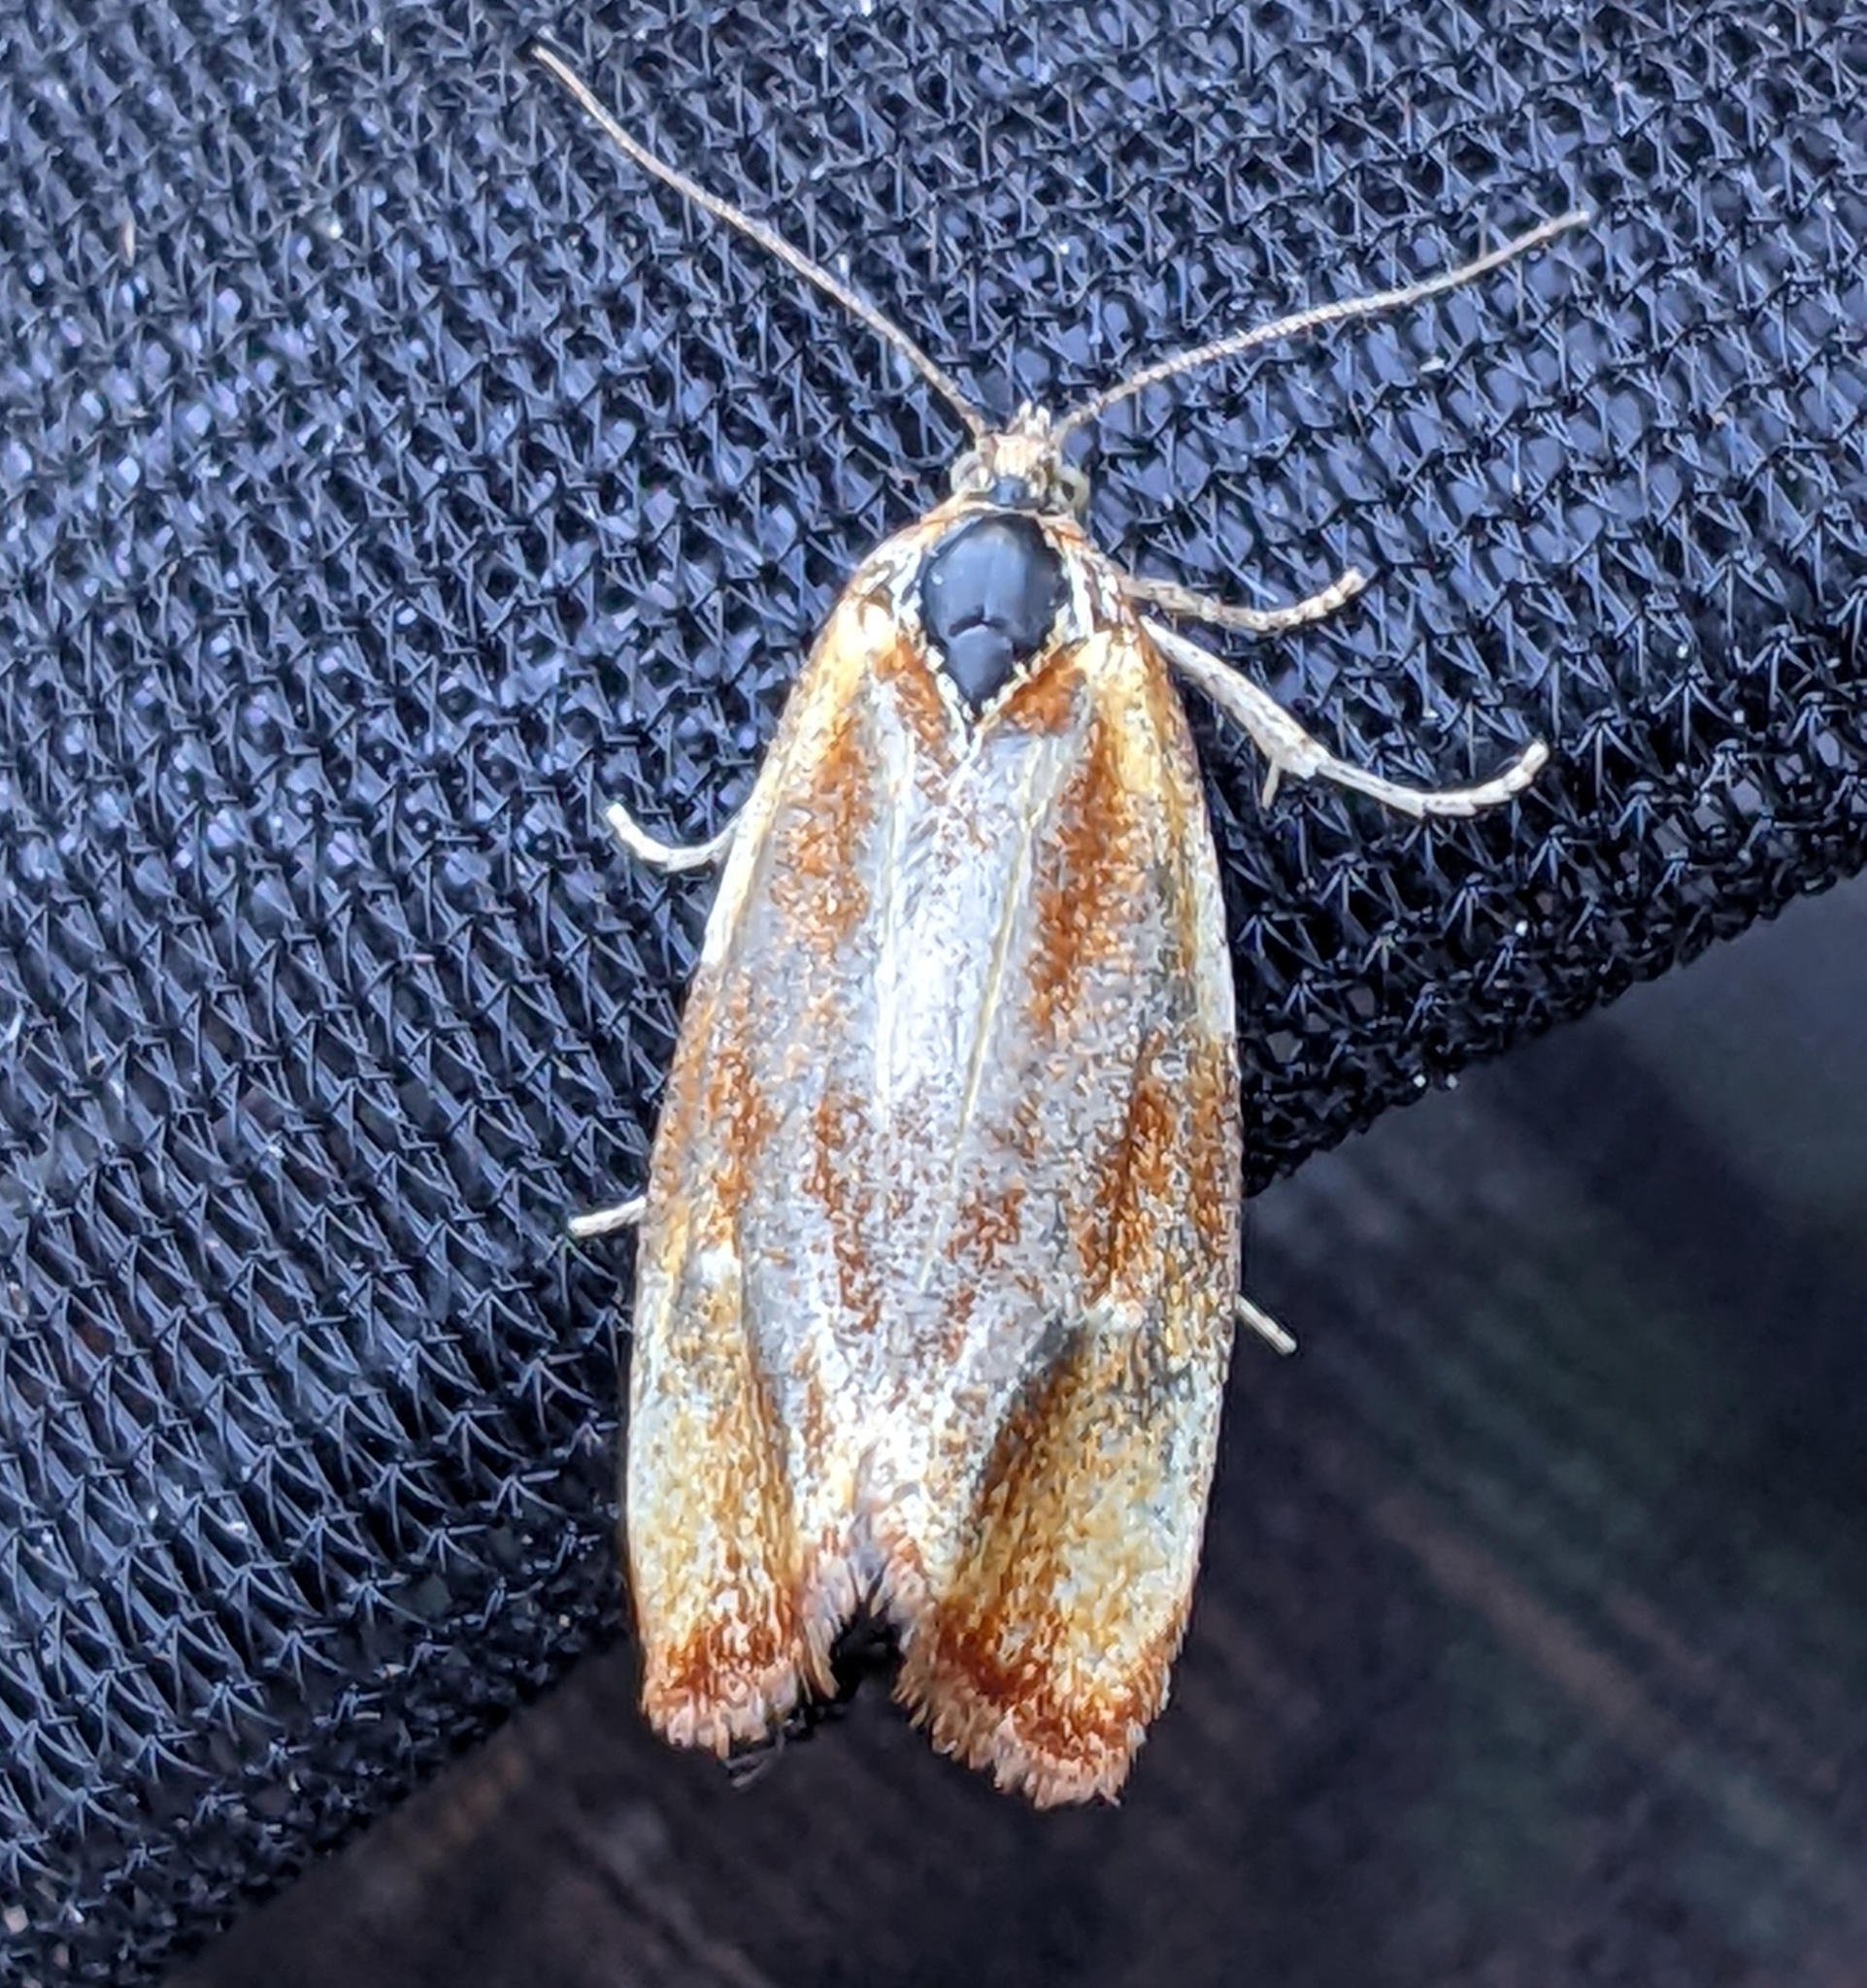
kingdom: Animalia
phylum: Arthropoda
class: Insecta
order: Lepidoptera
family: Tortricidae
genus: Eulia
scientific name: Eulia ministrana
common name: Brassy twist
